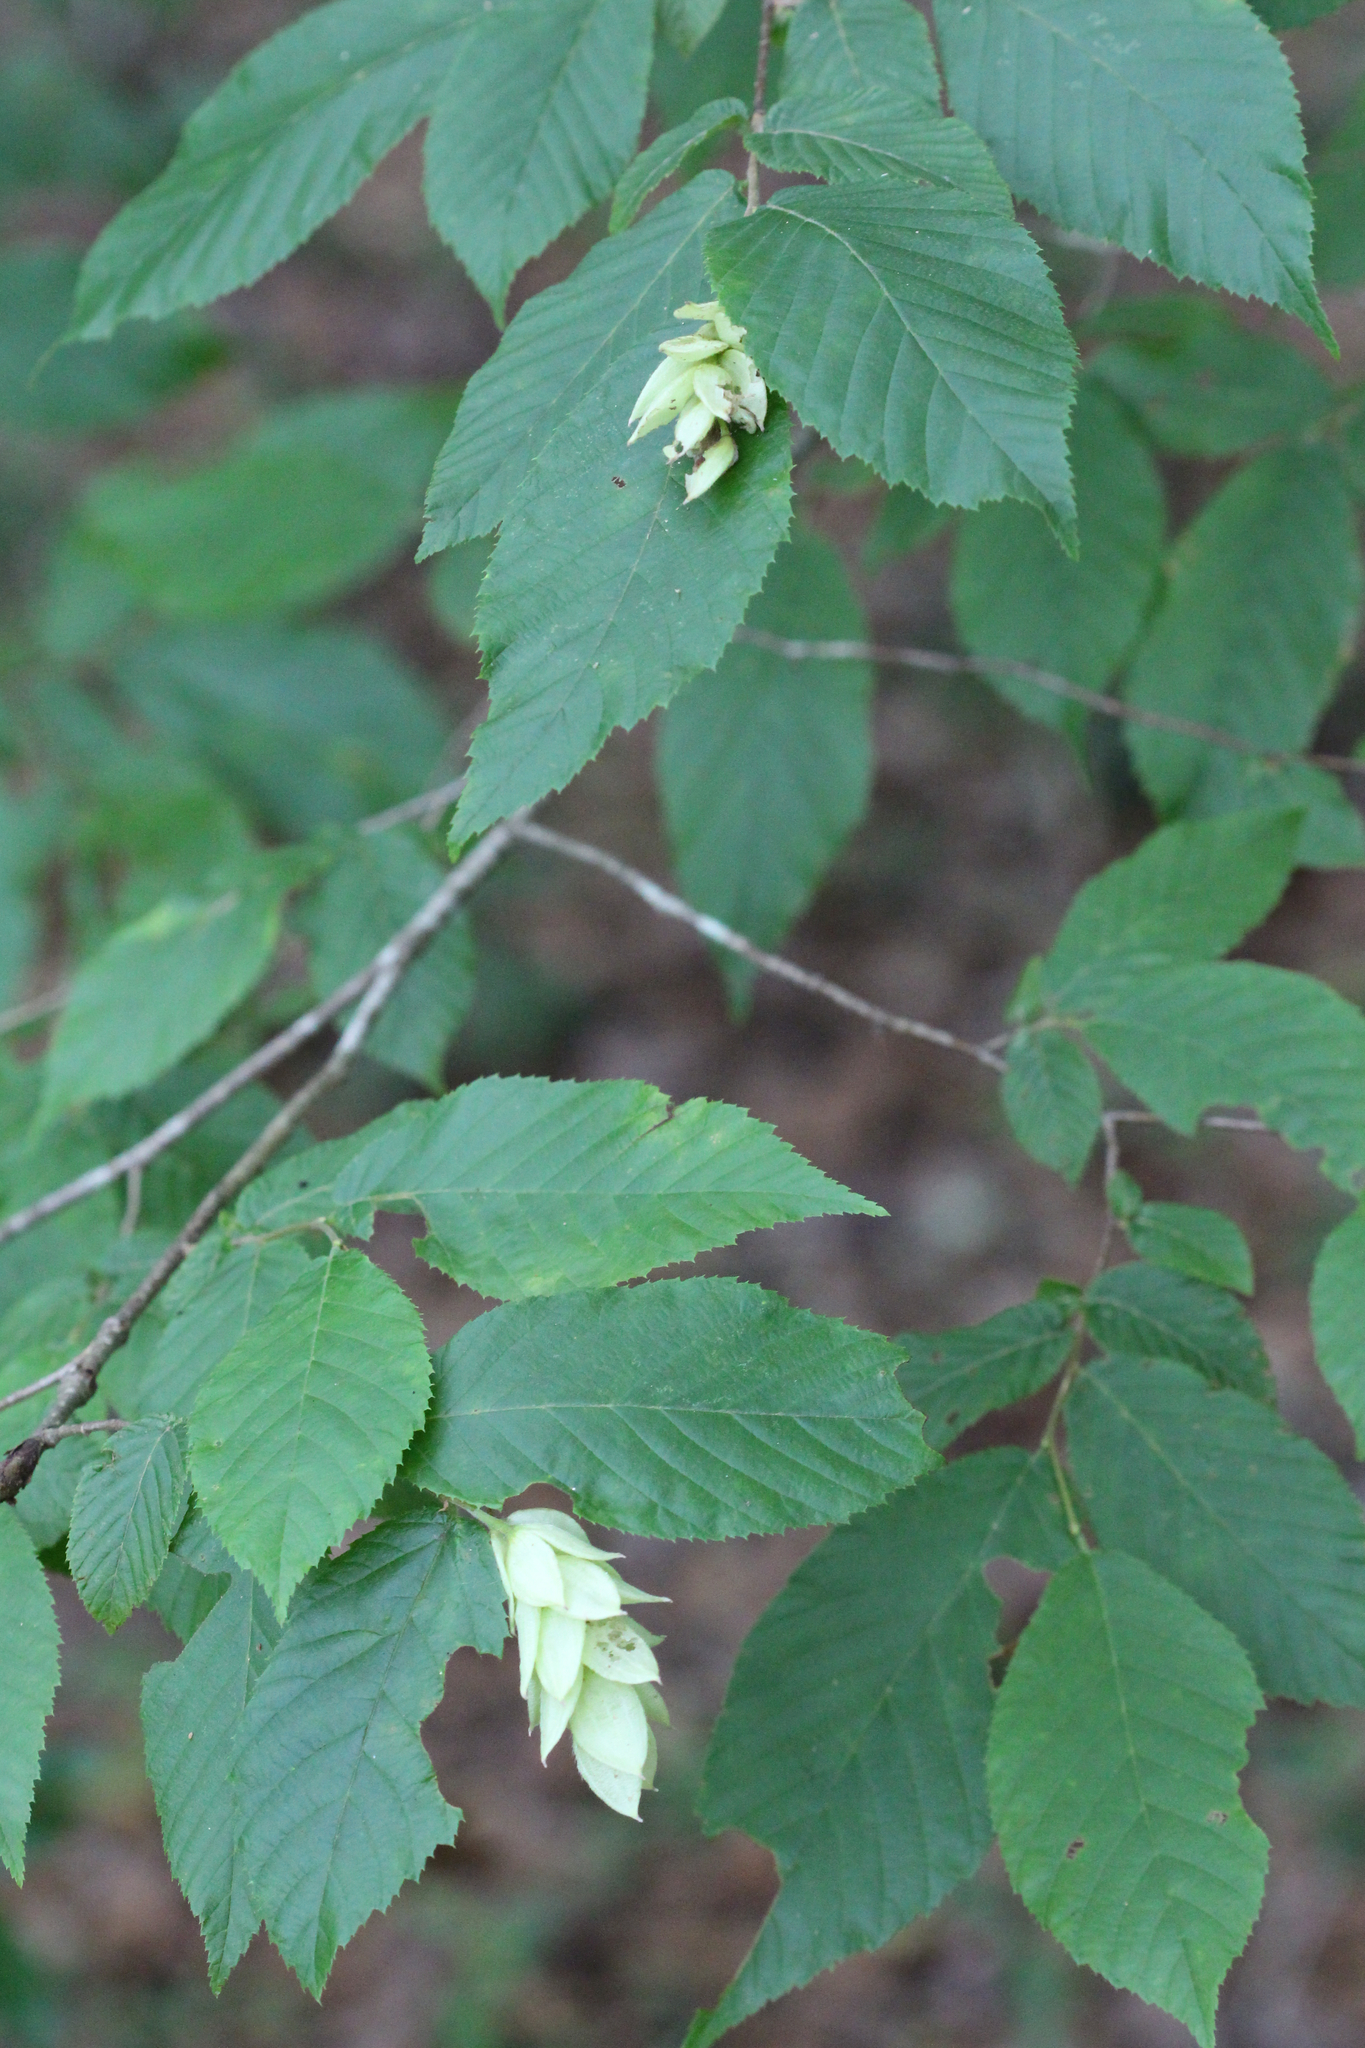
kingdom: Plantae
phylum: Tracheophyta
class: Magnoliopsida
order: Fagales
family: Betulaceae
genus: Ostrya
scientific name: Ostrya virginiana
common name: Ironwood
